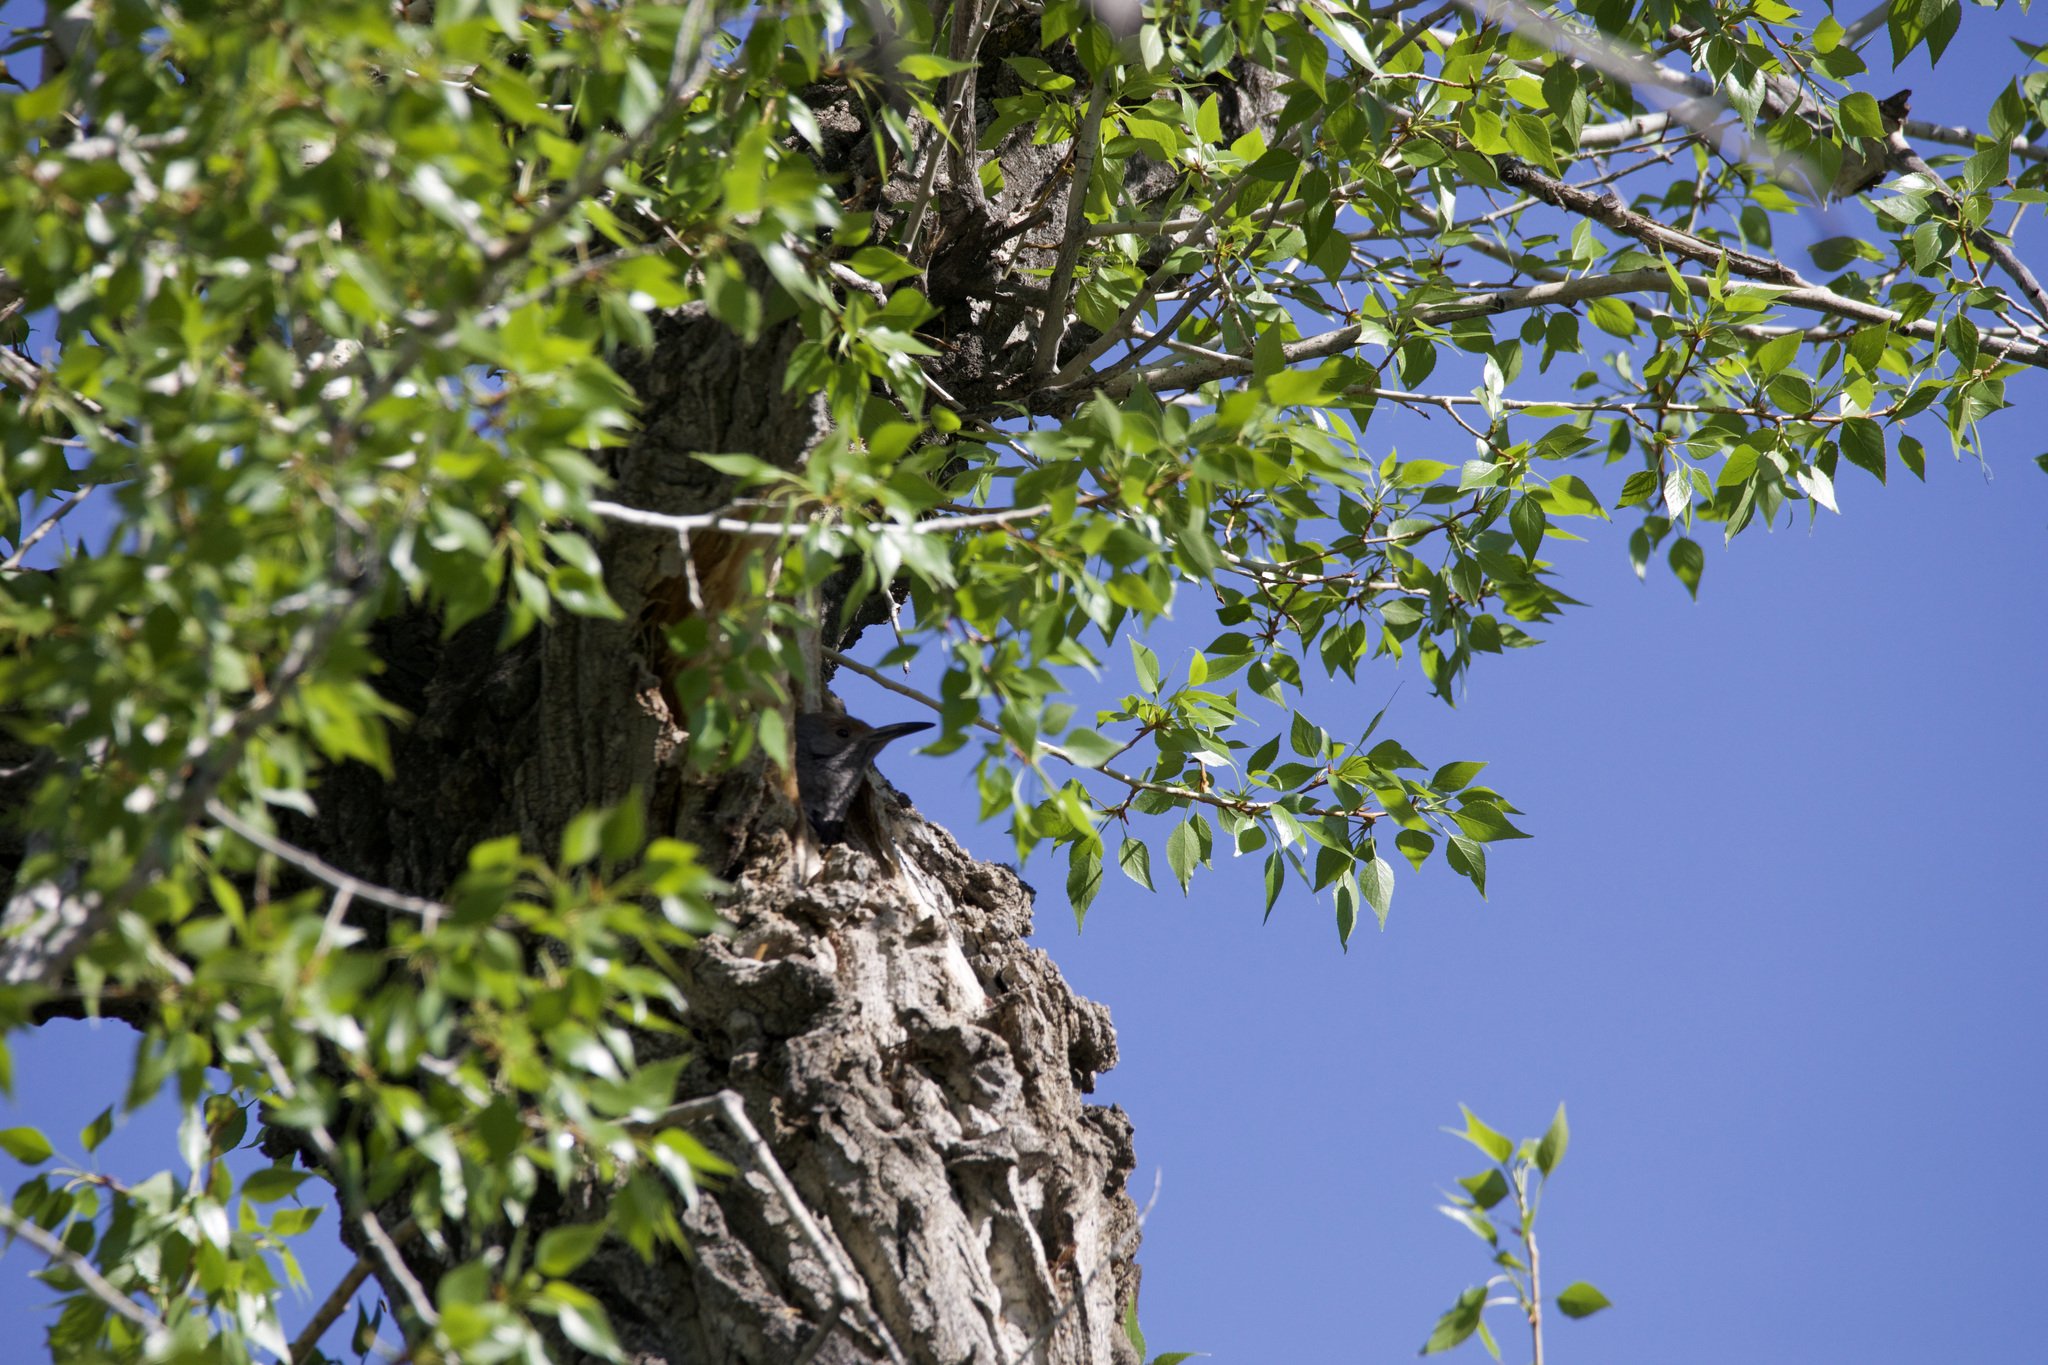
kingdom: Animalia
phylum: Chordata
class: Aves
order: Piciformes
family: Picidae
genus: Colaptes
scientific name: Colaptes auratus
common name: Northern flicker
